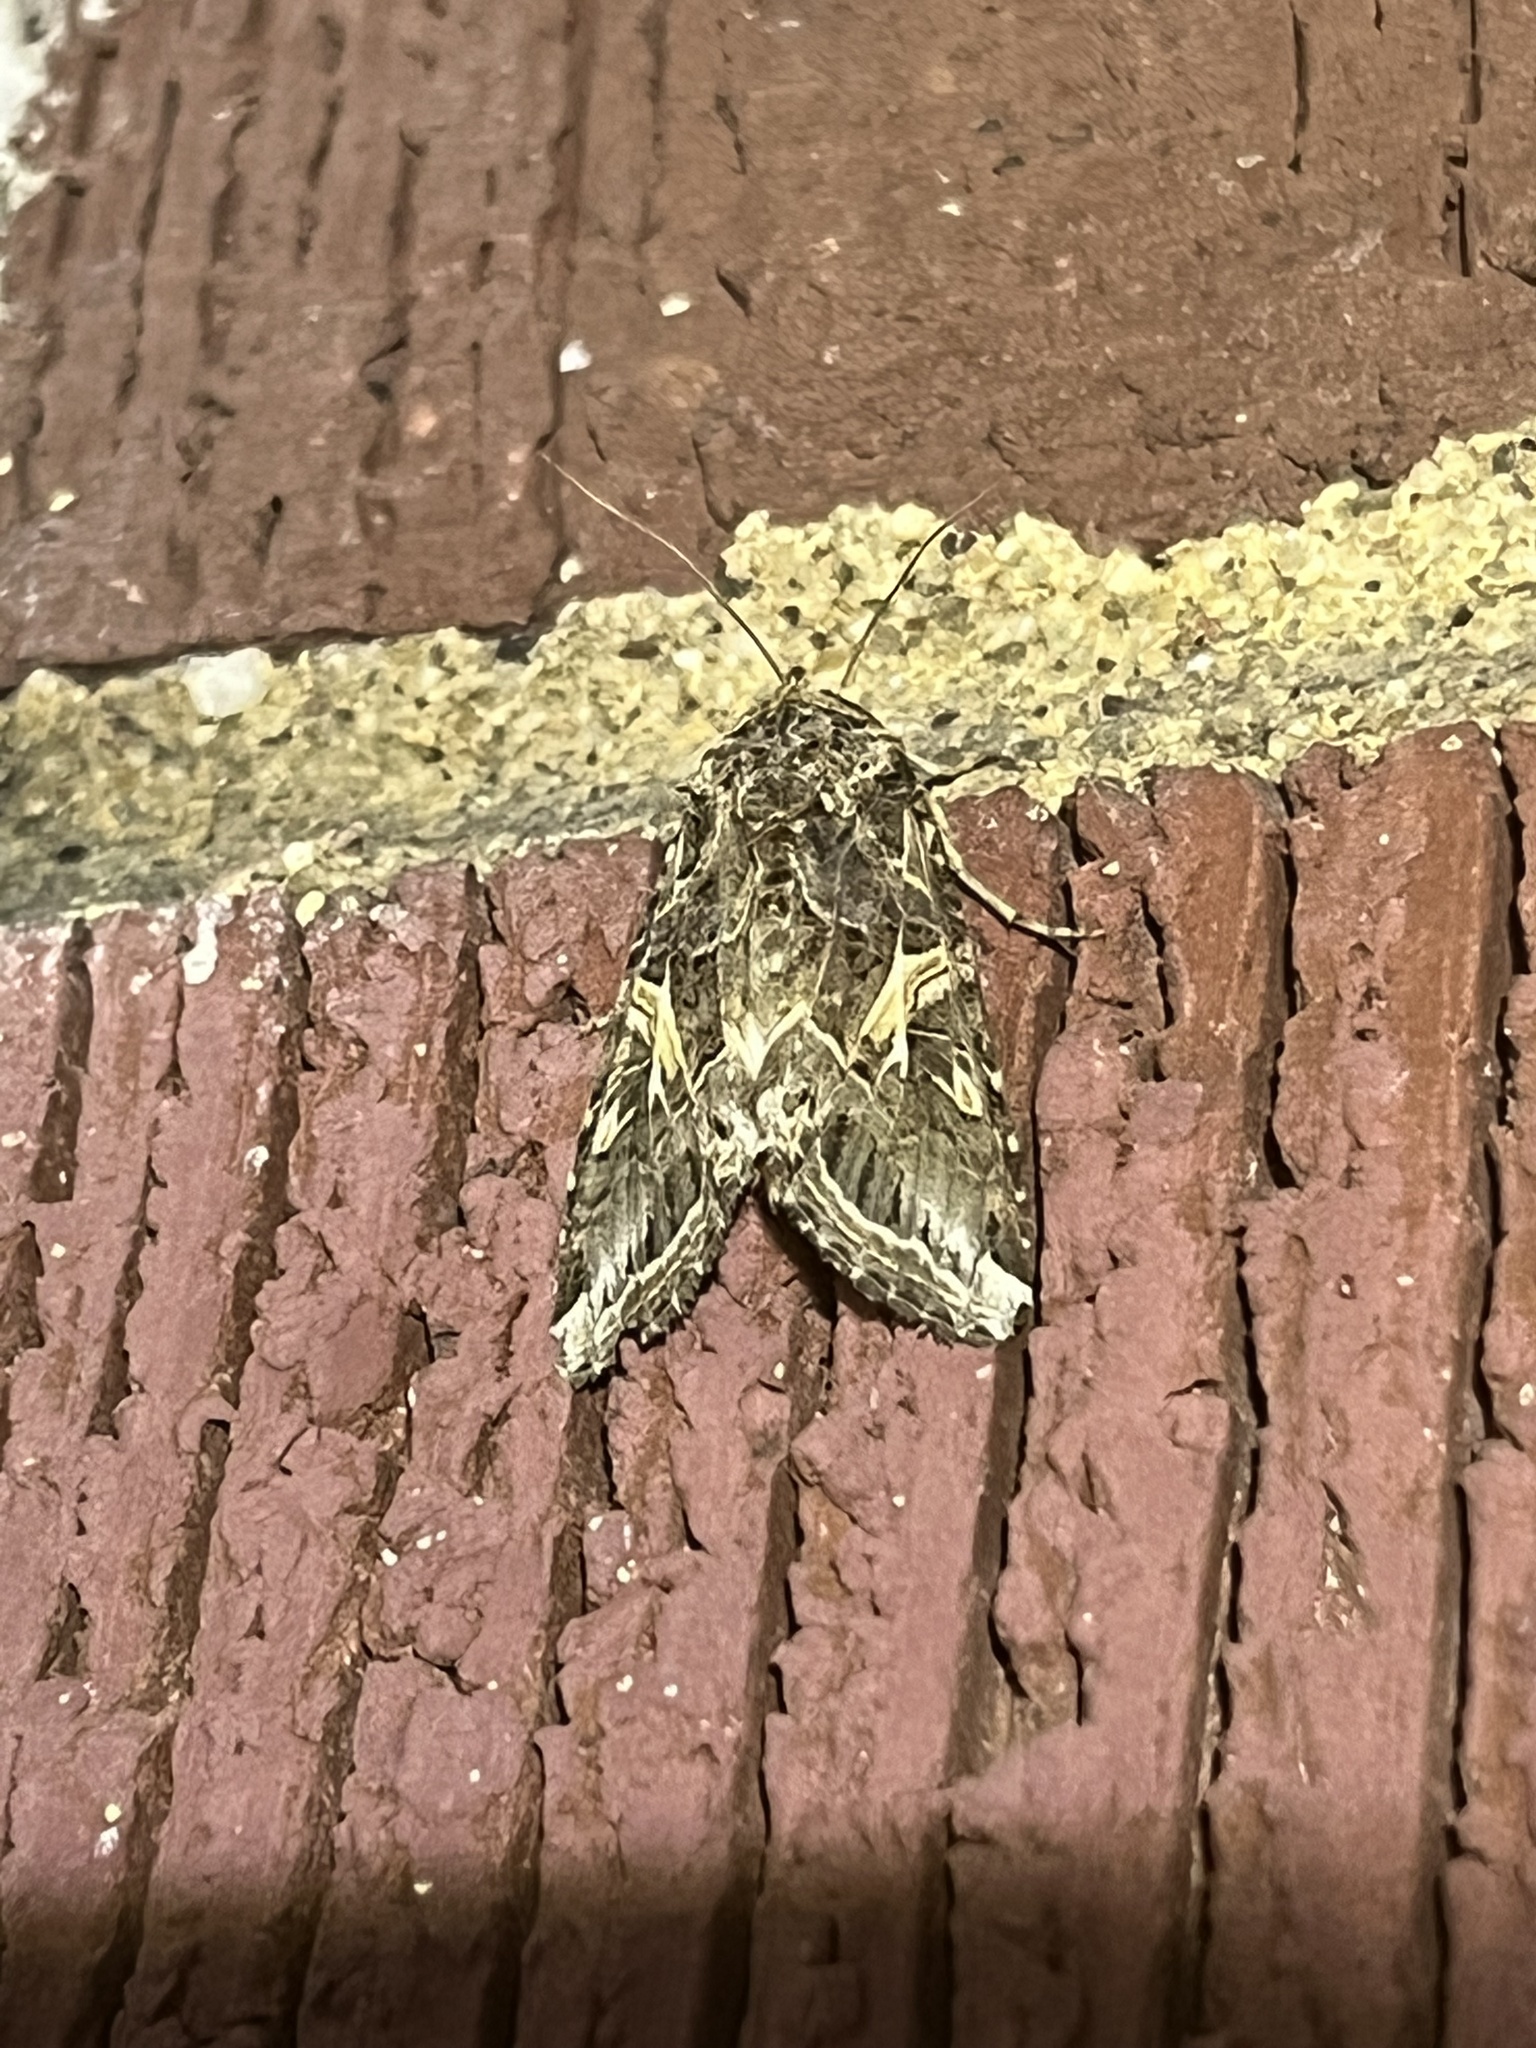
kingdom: Animalia
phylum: Arthropoda
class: Insecta
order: Lepidoptera
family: Noctuidae
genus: Spodoptera
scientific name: Spodoptera ornithogalli
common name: Yellow-striped armyworm
